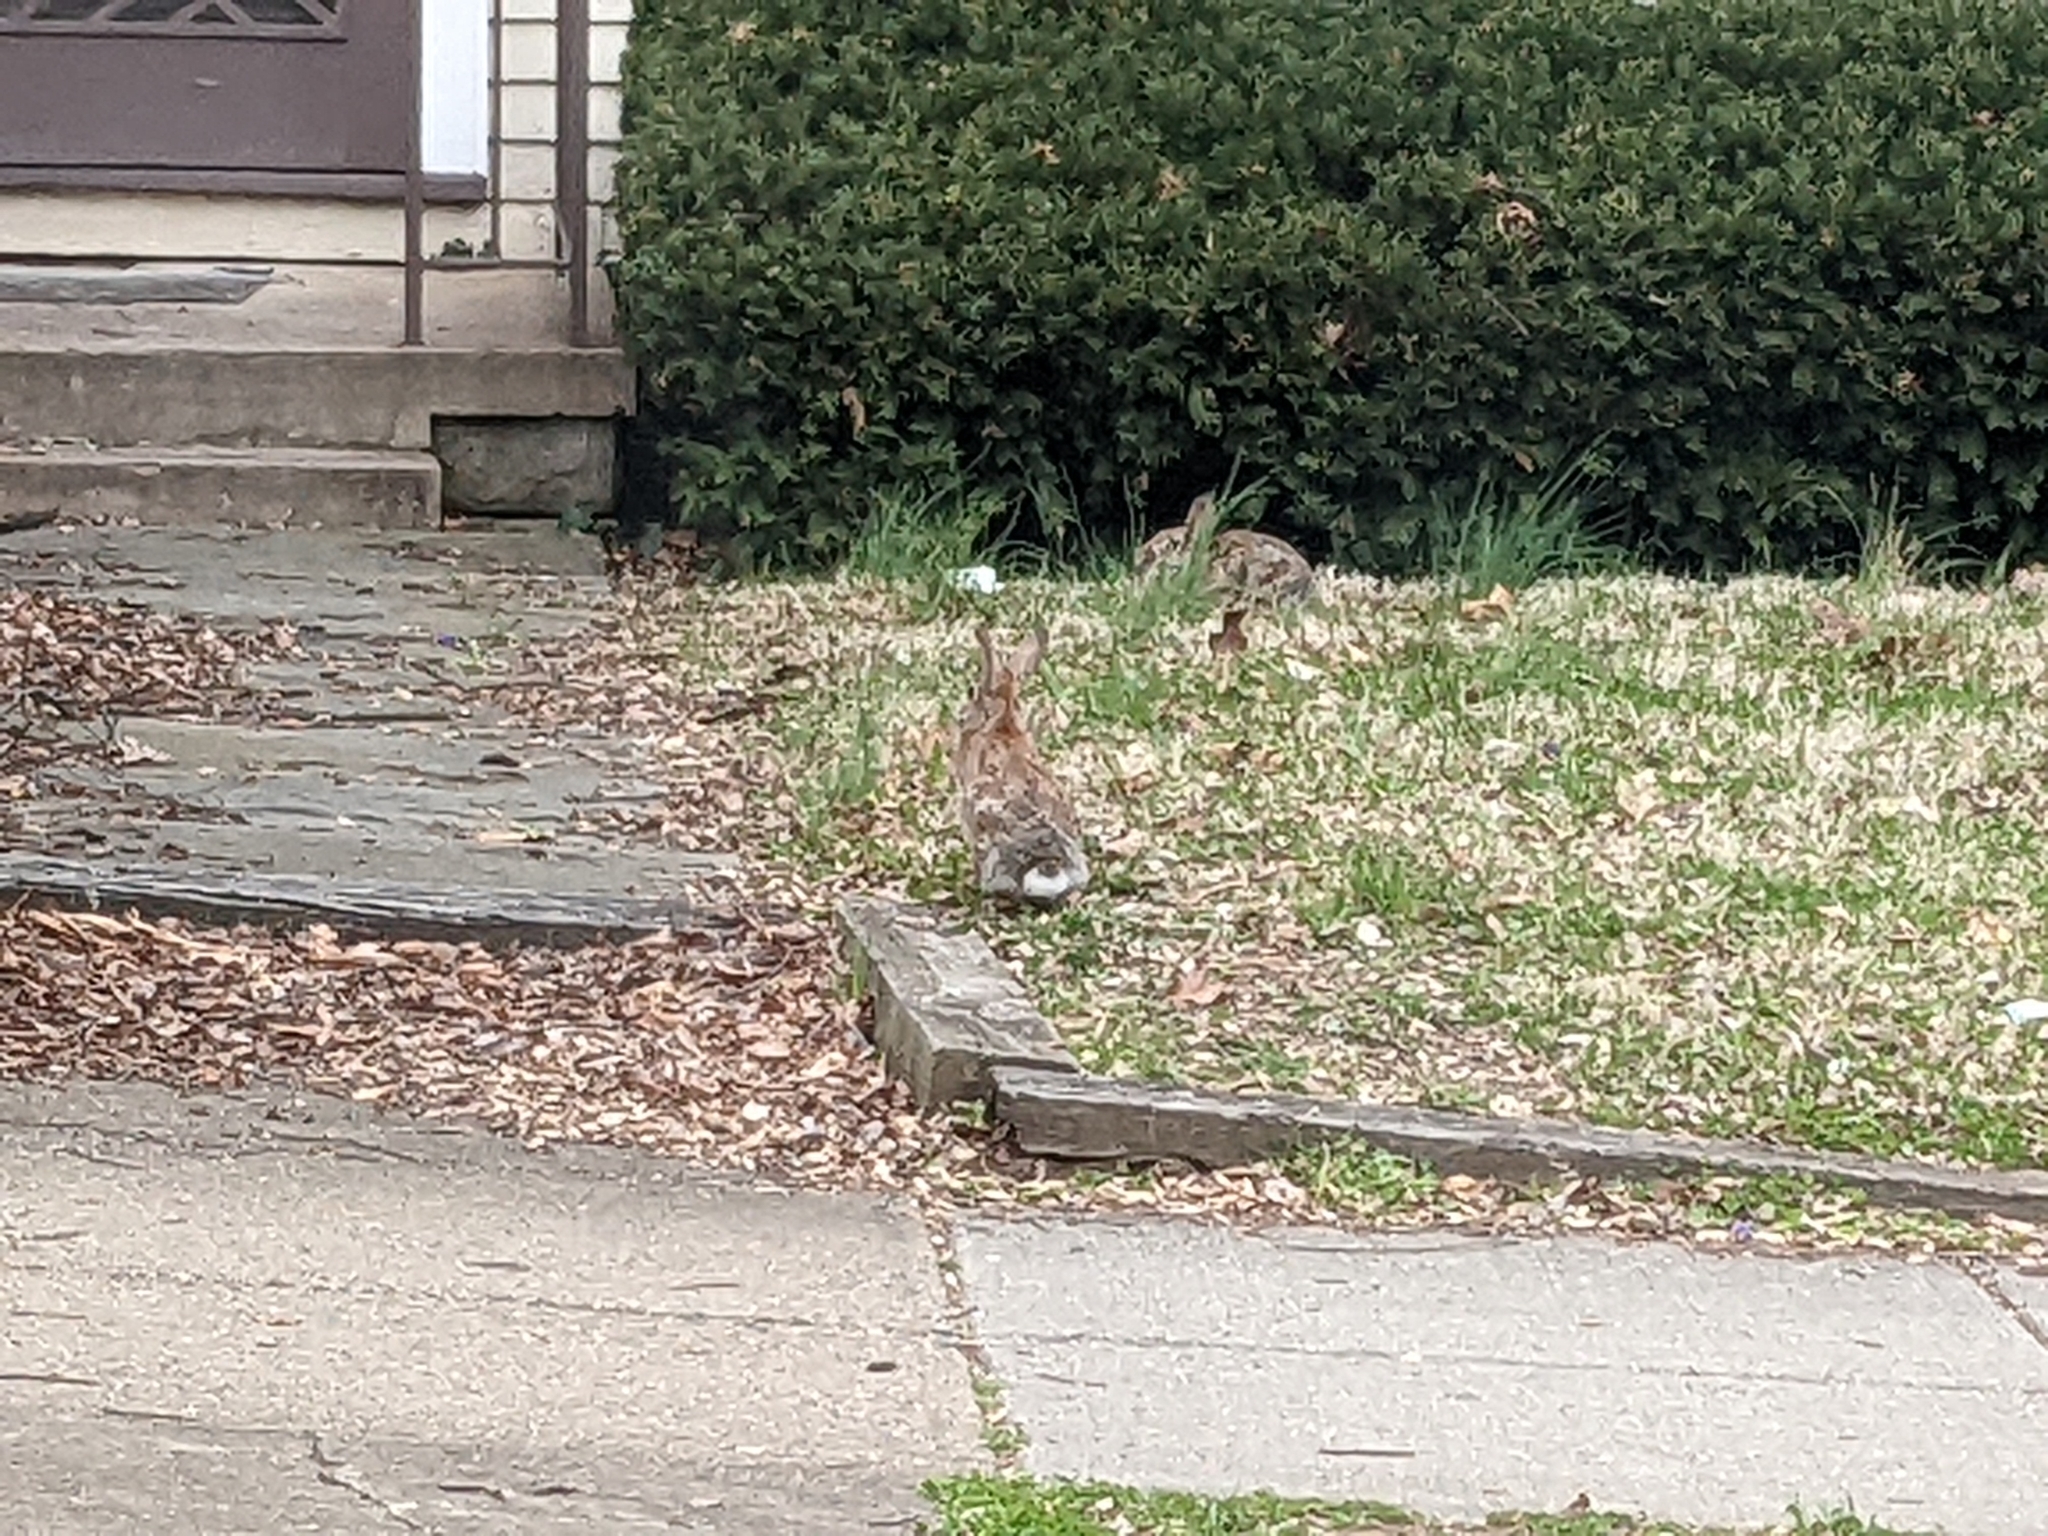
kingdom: Animalia
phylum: Chordata
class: Mammalia
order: Lagomorpha
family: Leporidae
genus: Sylvilagus
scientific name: Sylvilagus floridanus
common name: Eastern cottontail
